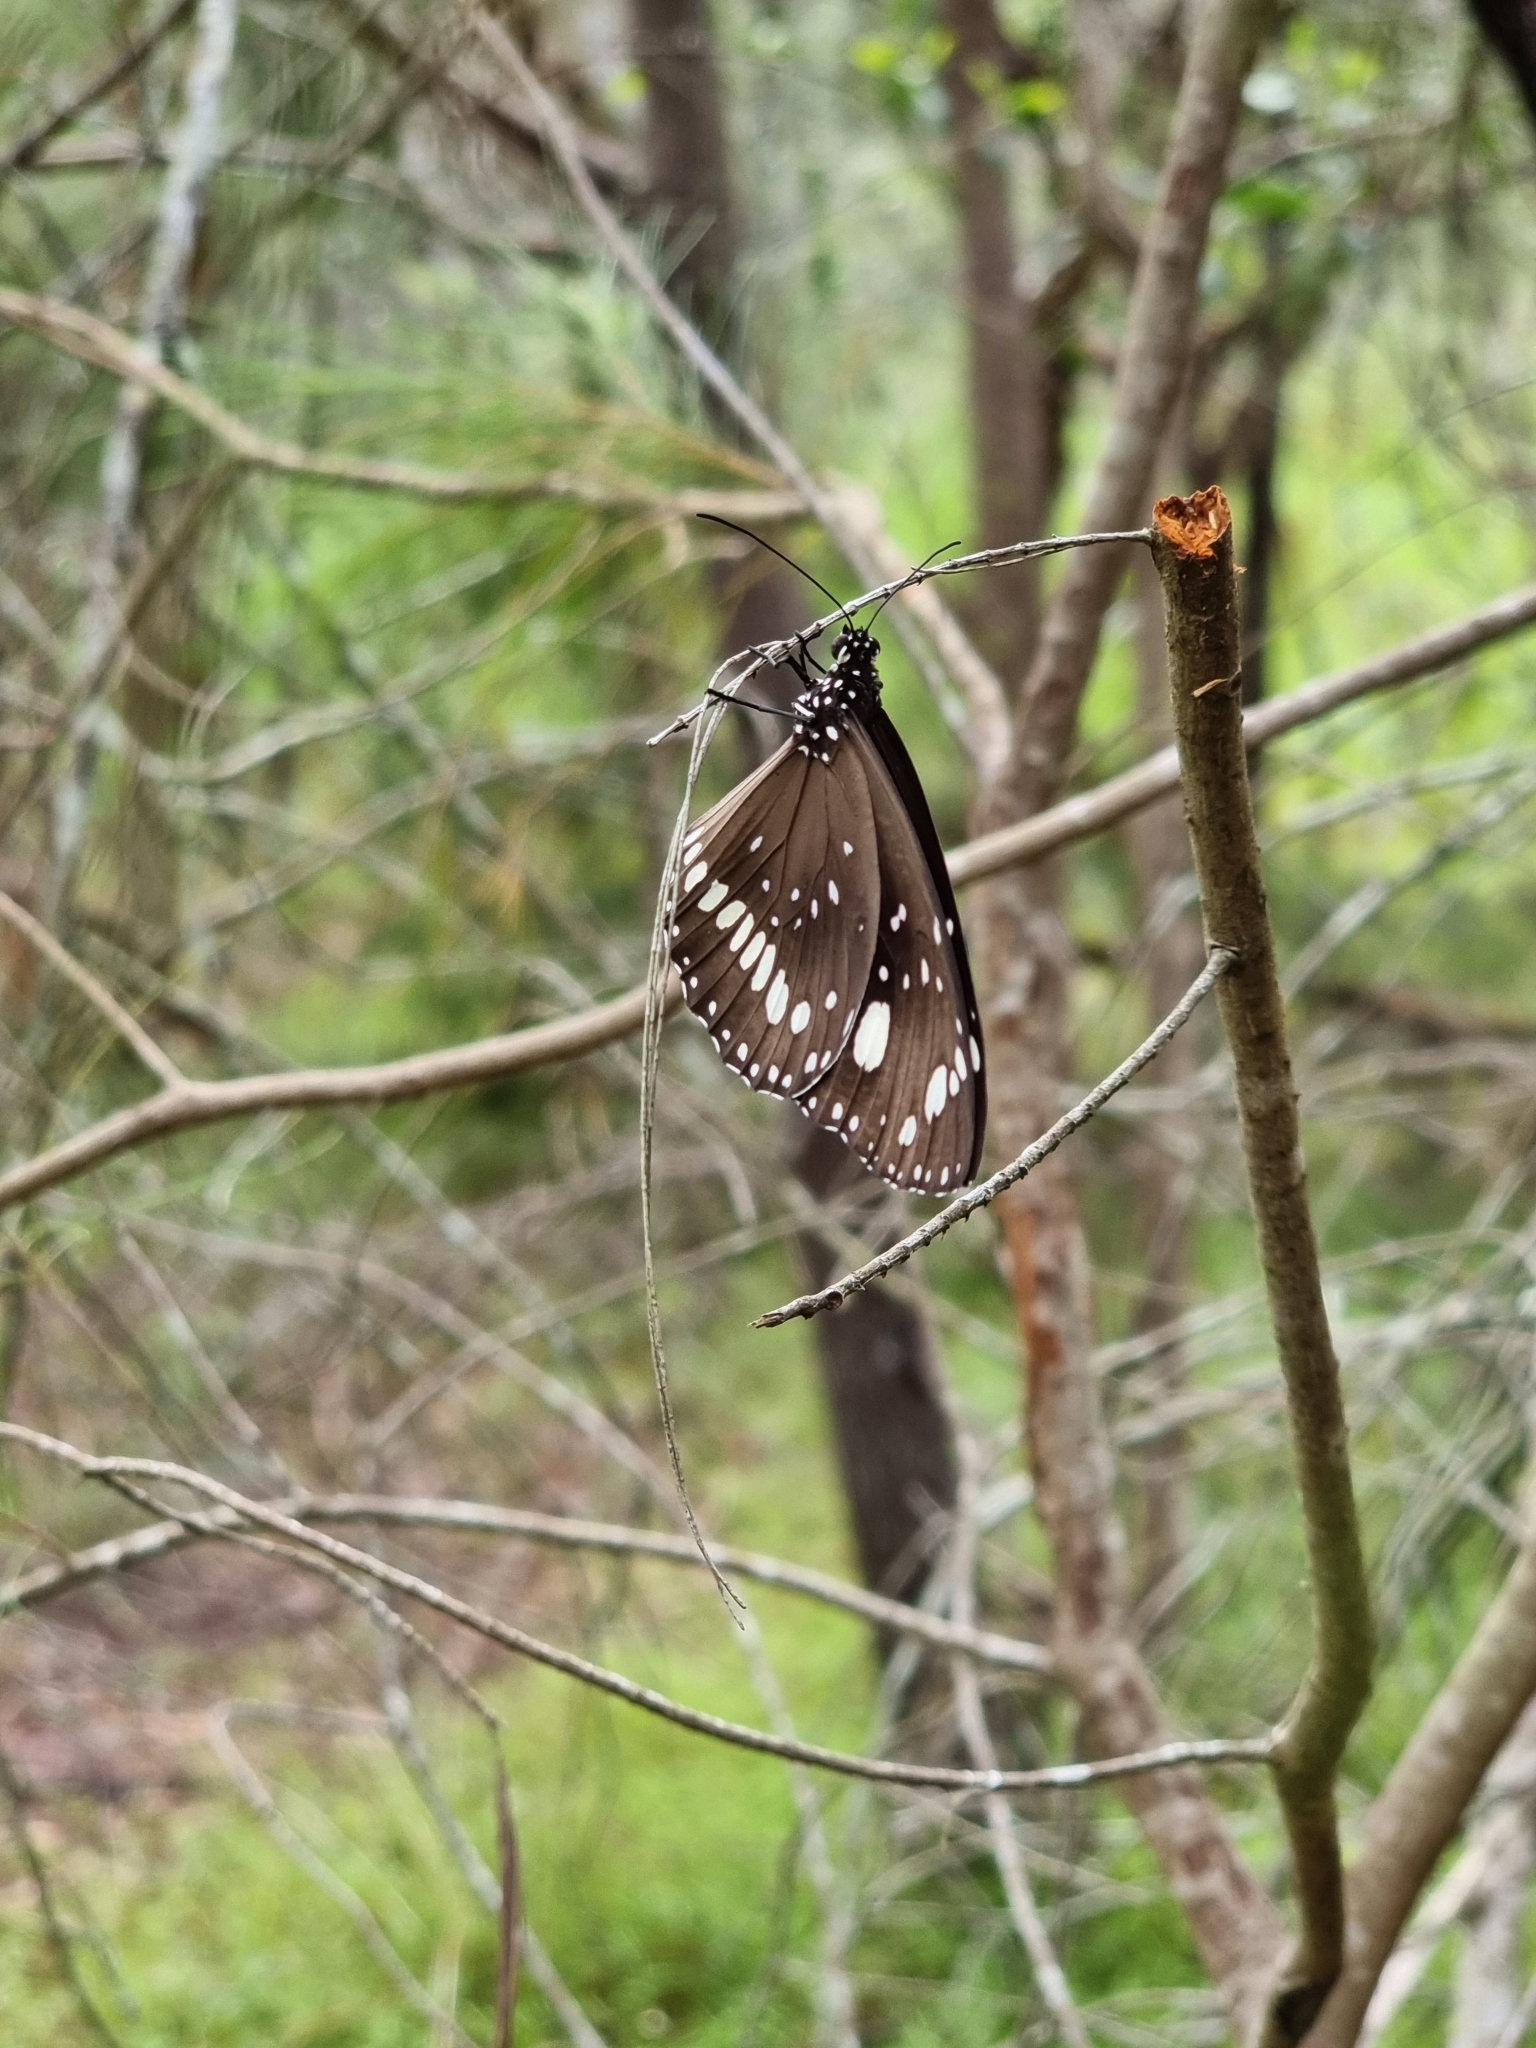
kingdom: Animalia
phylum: Arthropoda
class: Insecta
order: Lepidoptera
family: Nymphalidae
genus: Euploea
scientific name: Euploea core
